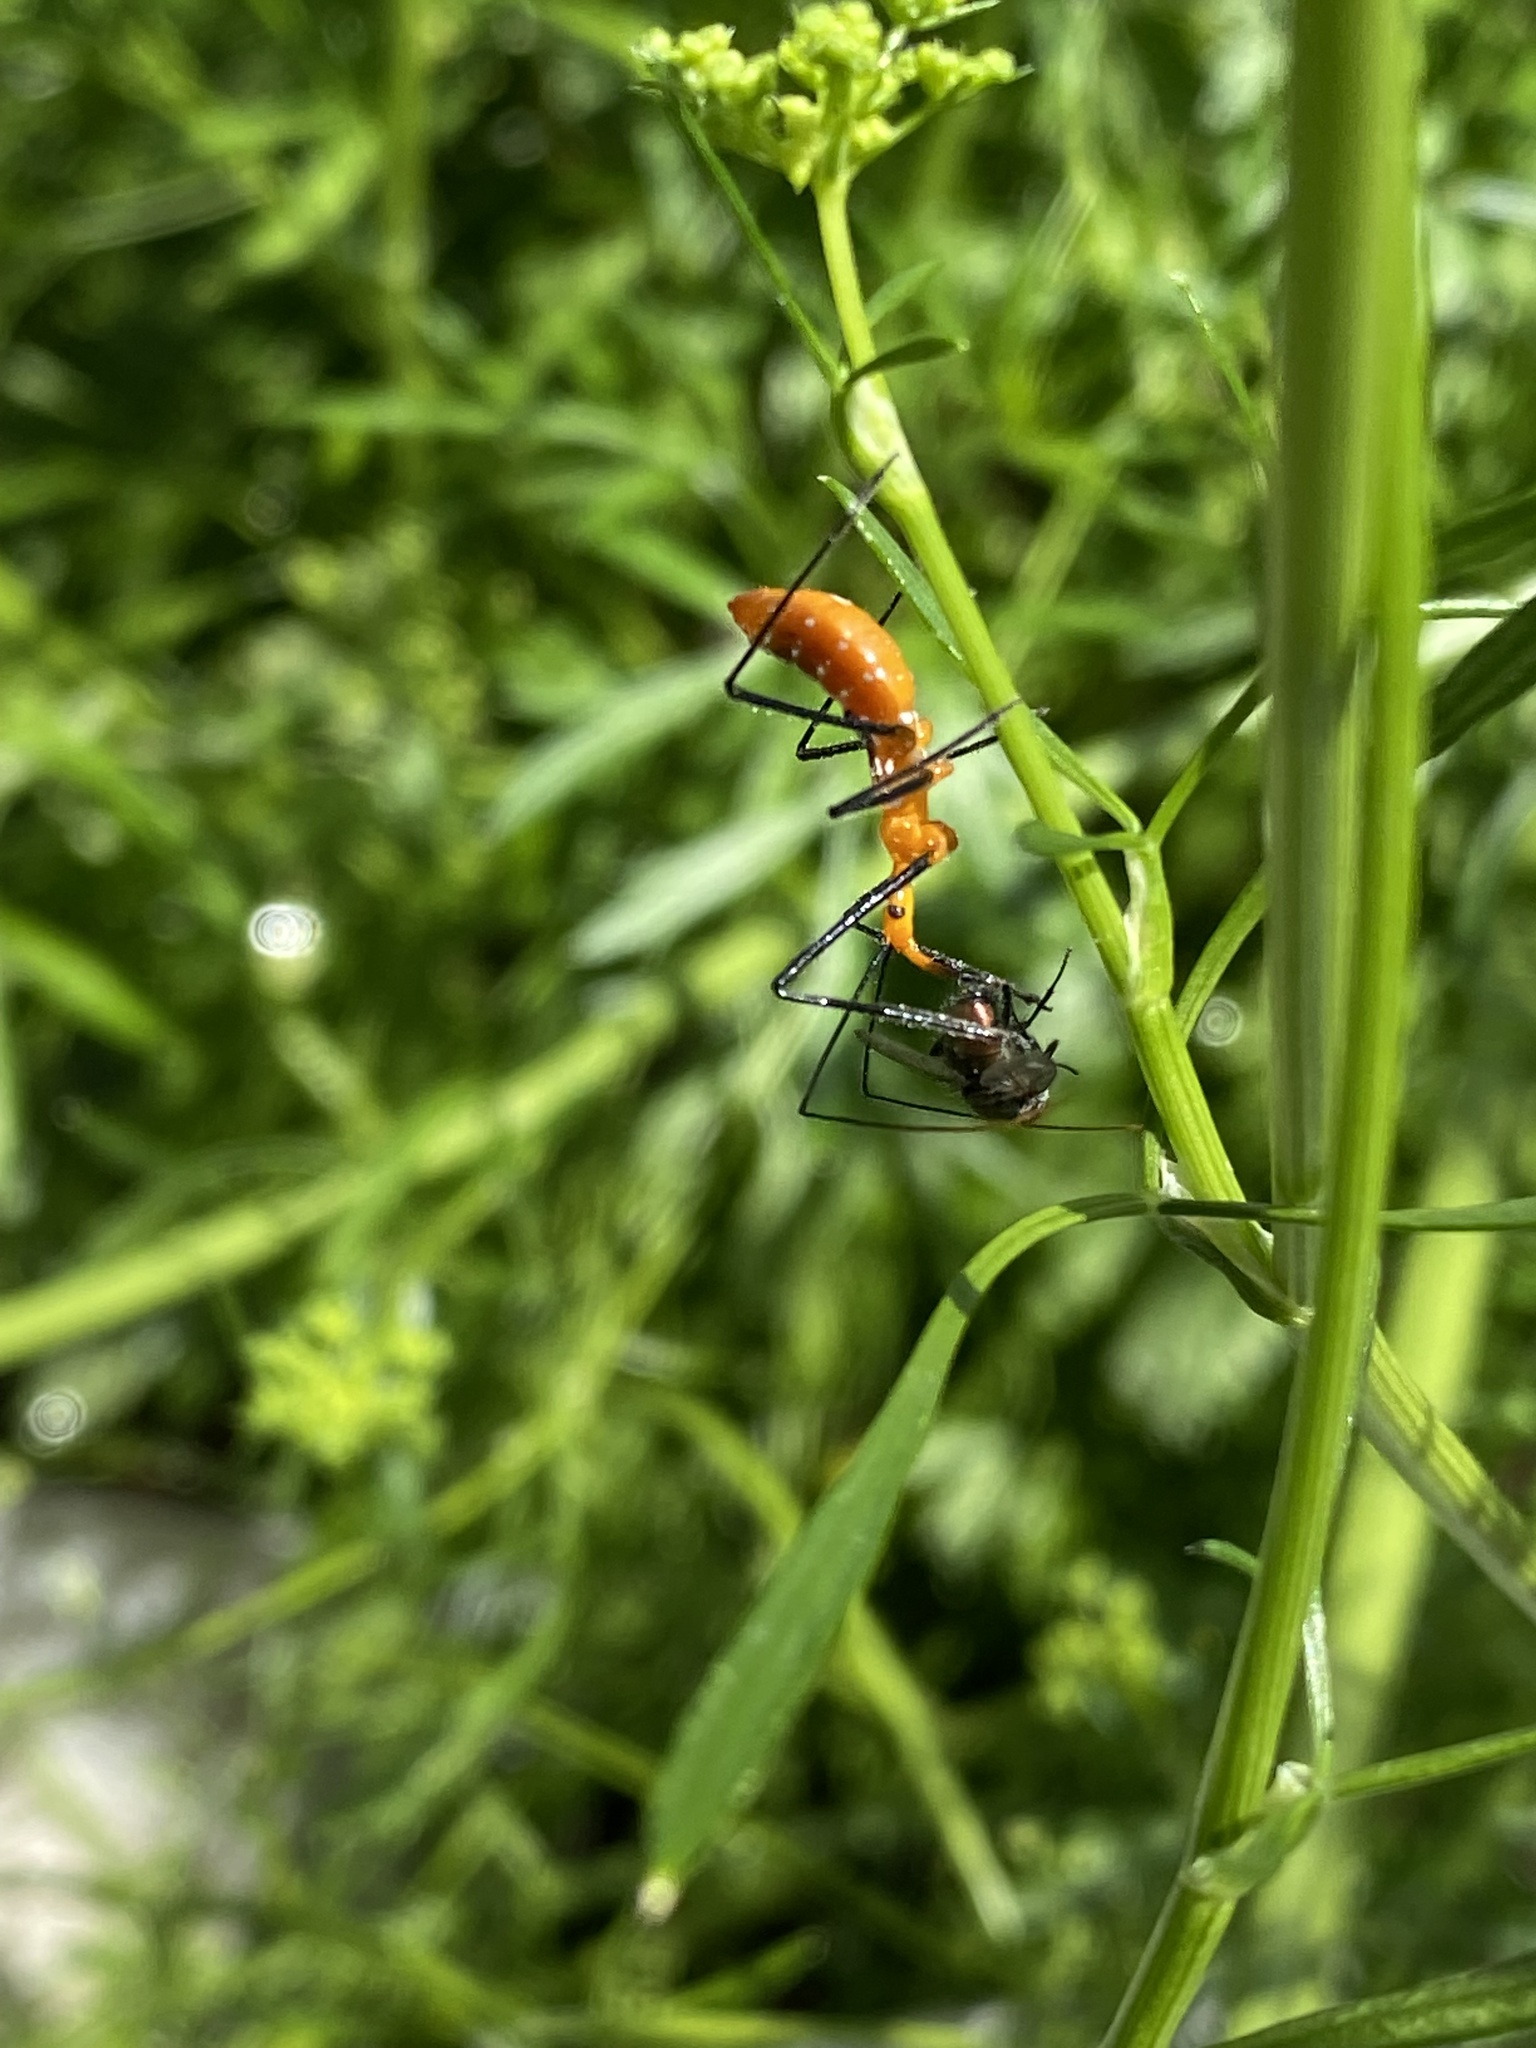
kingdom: Animalia
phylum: Arthropoda
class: Insecta
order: Hemiptera
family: Reduviidae
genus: Zelus
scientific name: Zelus longipes
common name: Milkweed assassin bug
